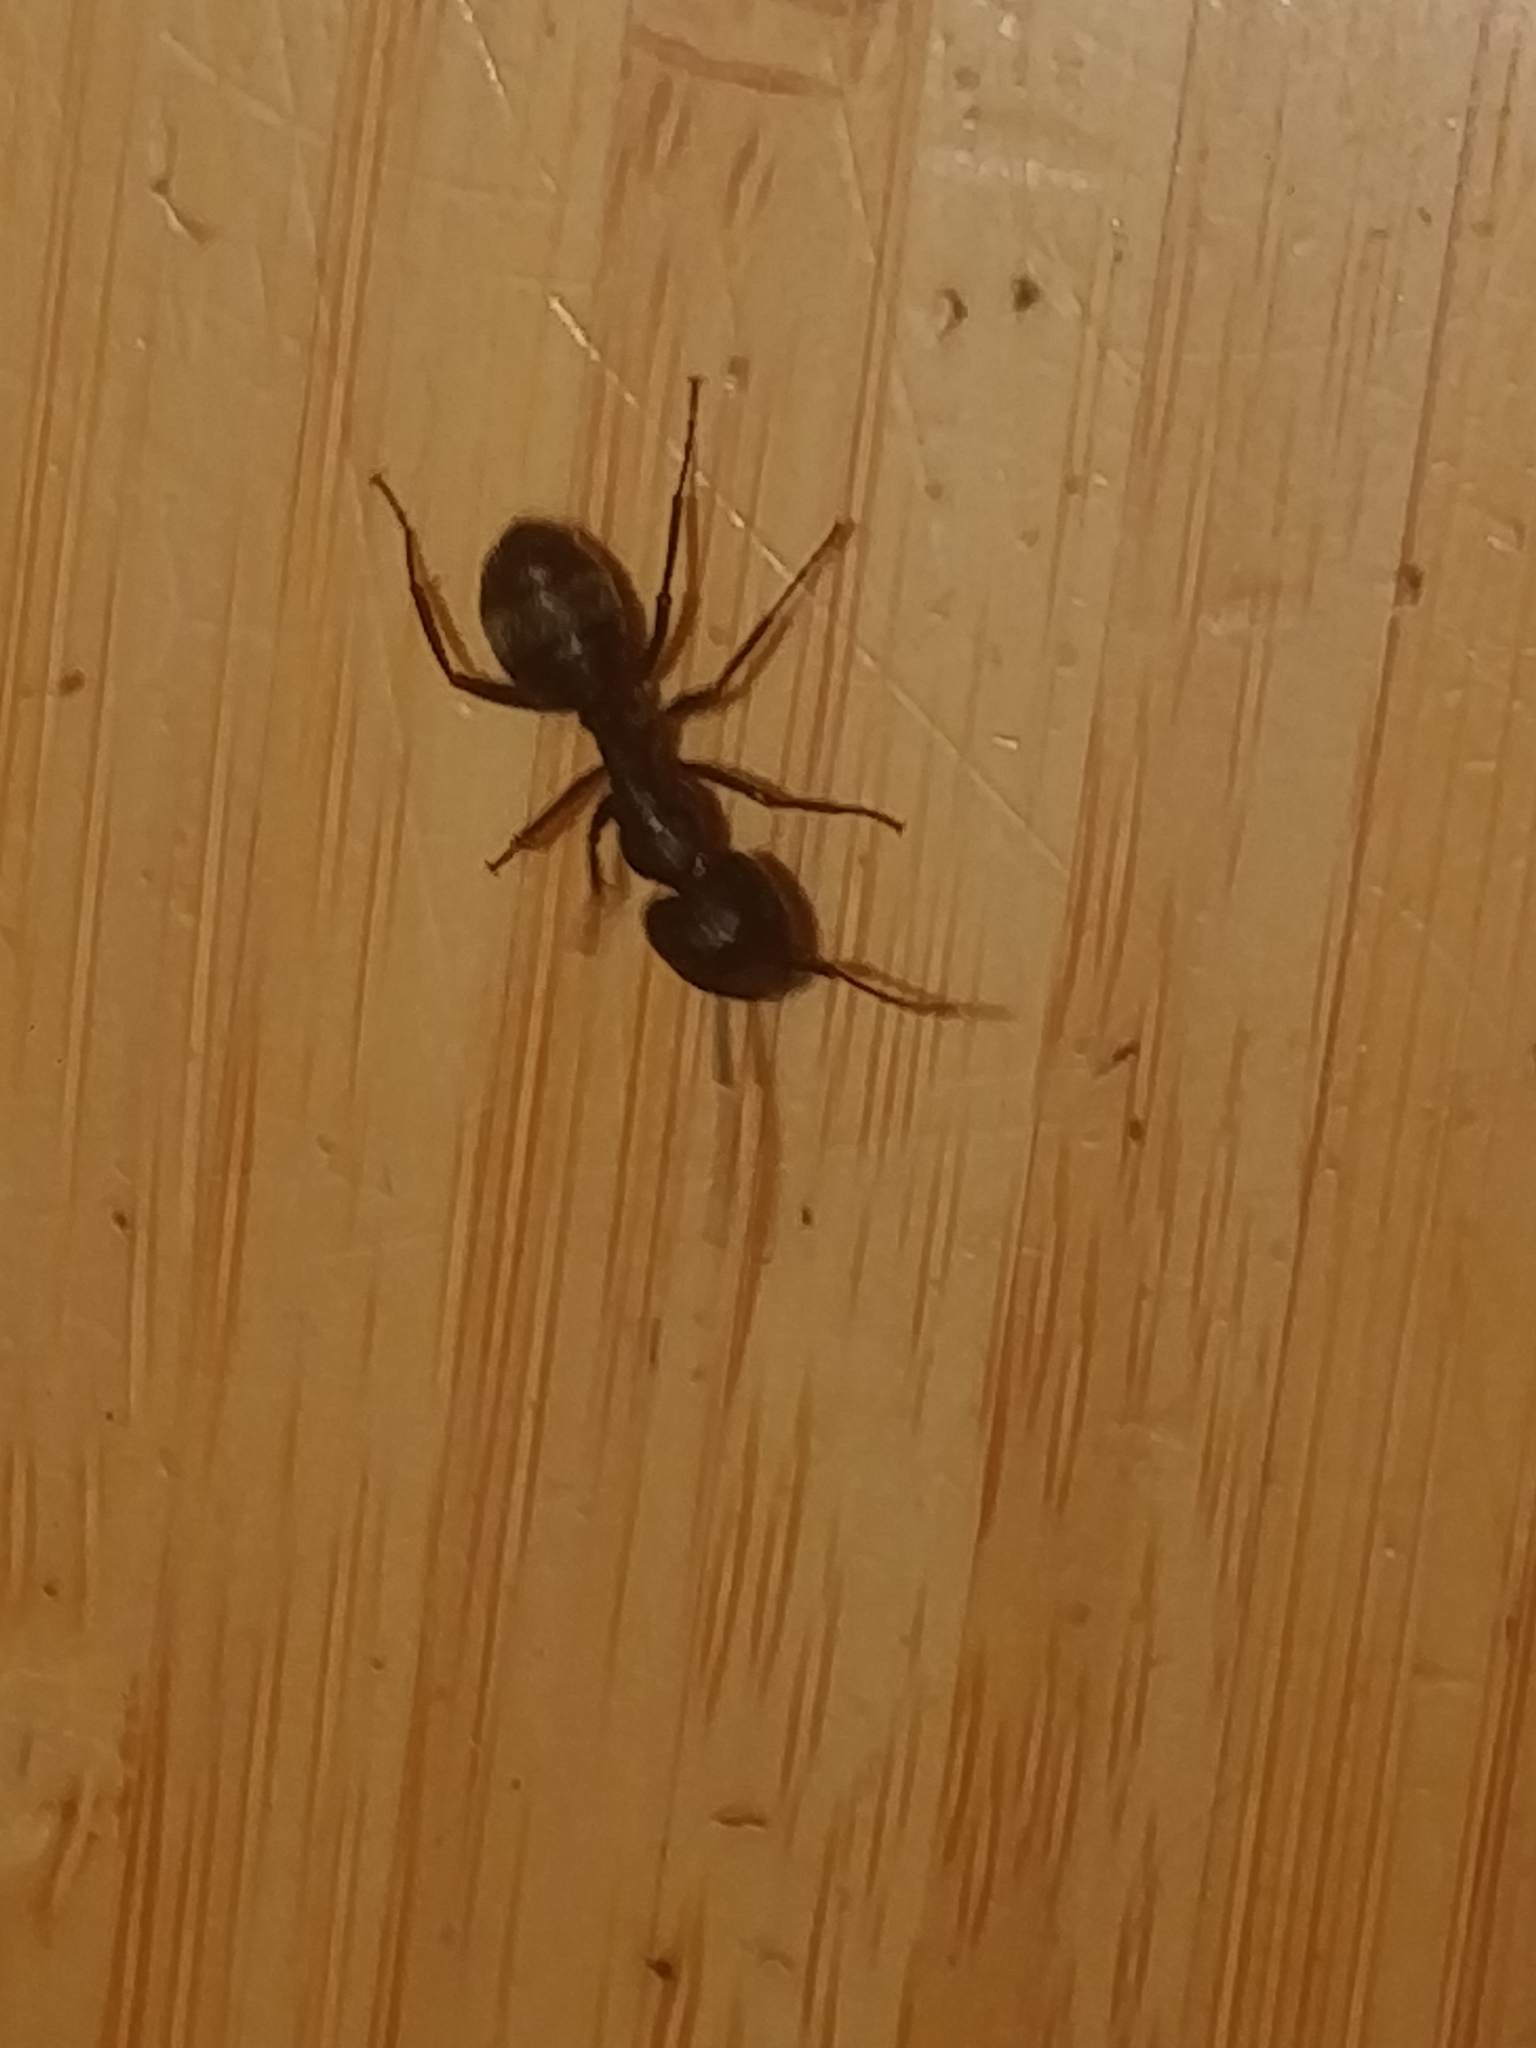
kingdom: Animalia
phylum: Arthropoda
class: Insecta
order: Hymenoptera
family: Formicidae
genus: Camponotus
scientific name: Camponotus pennsylvanicus
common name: Black carpenter ant
